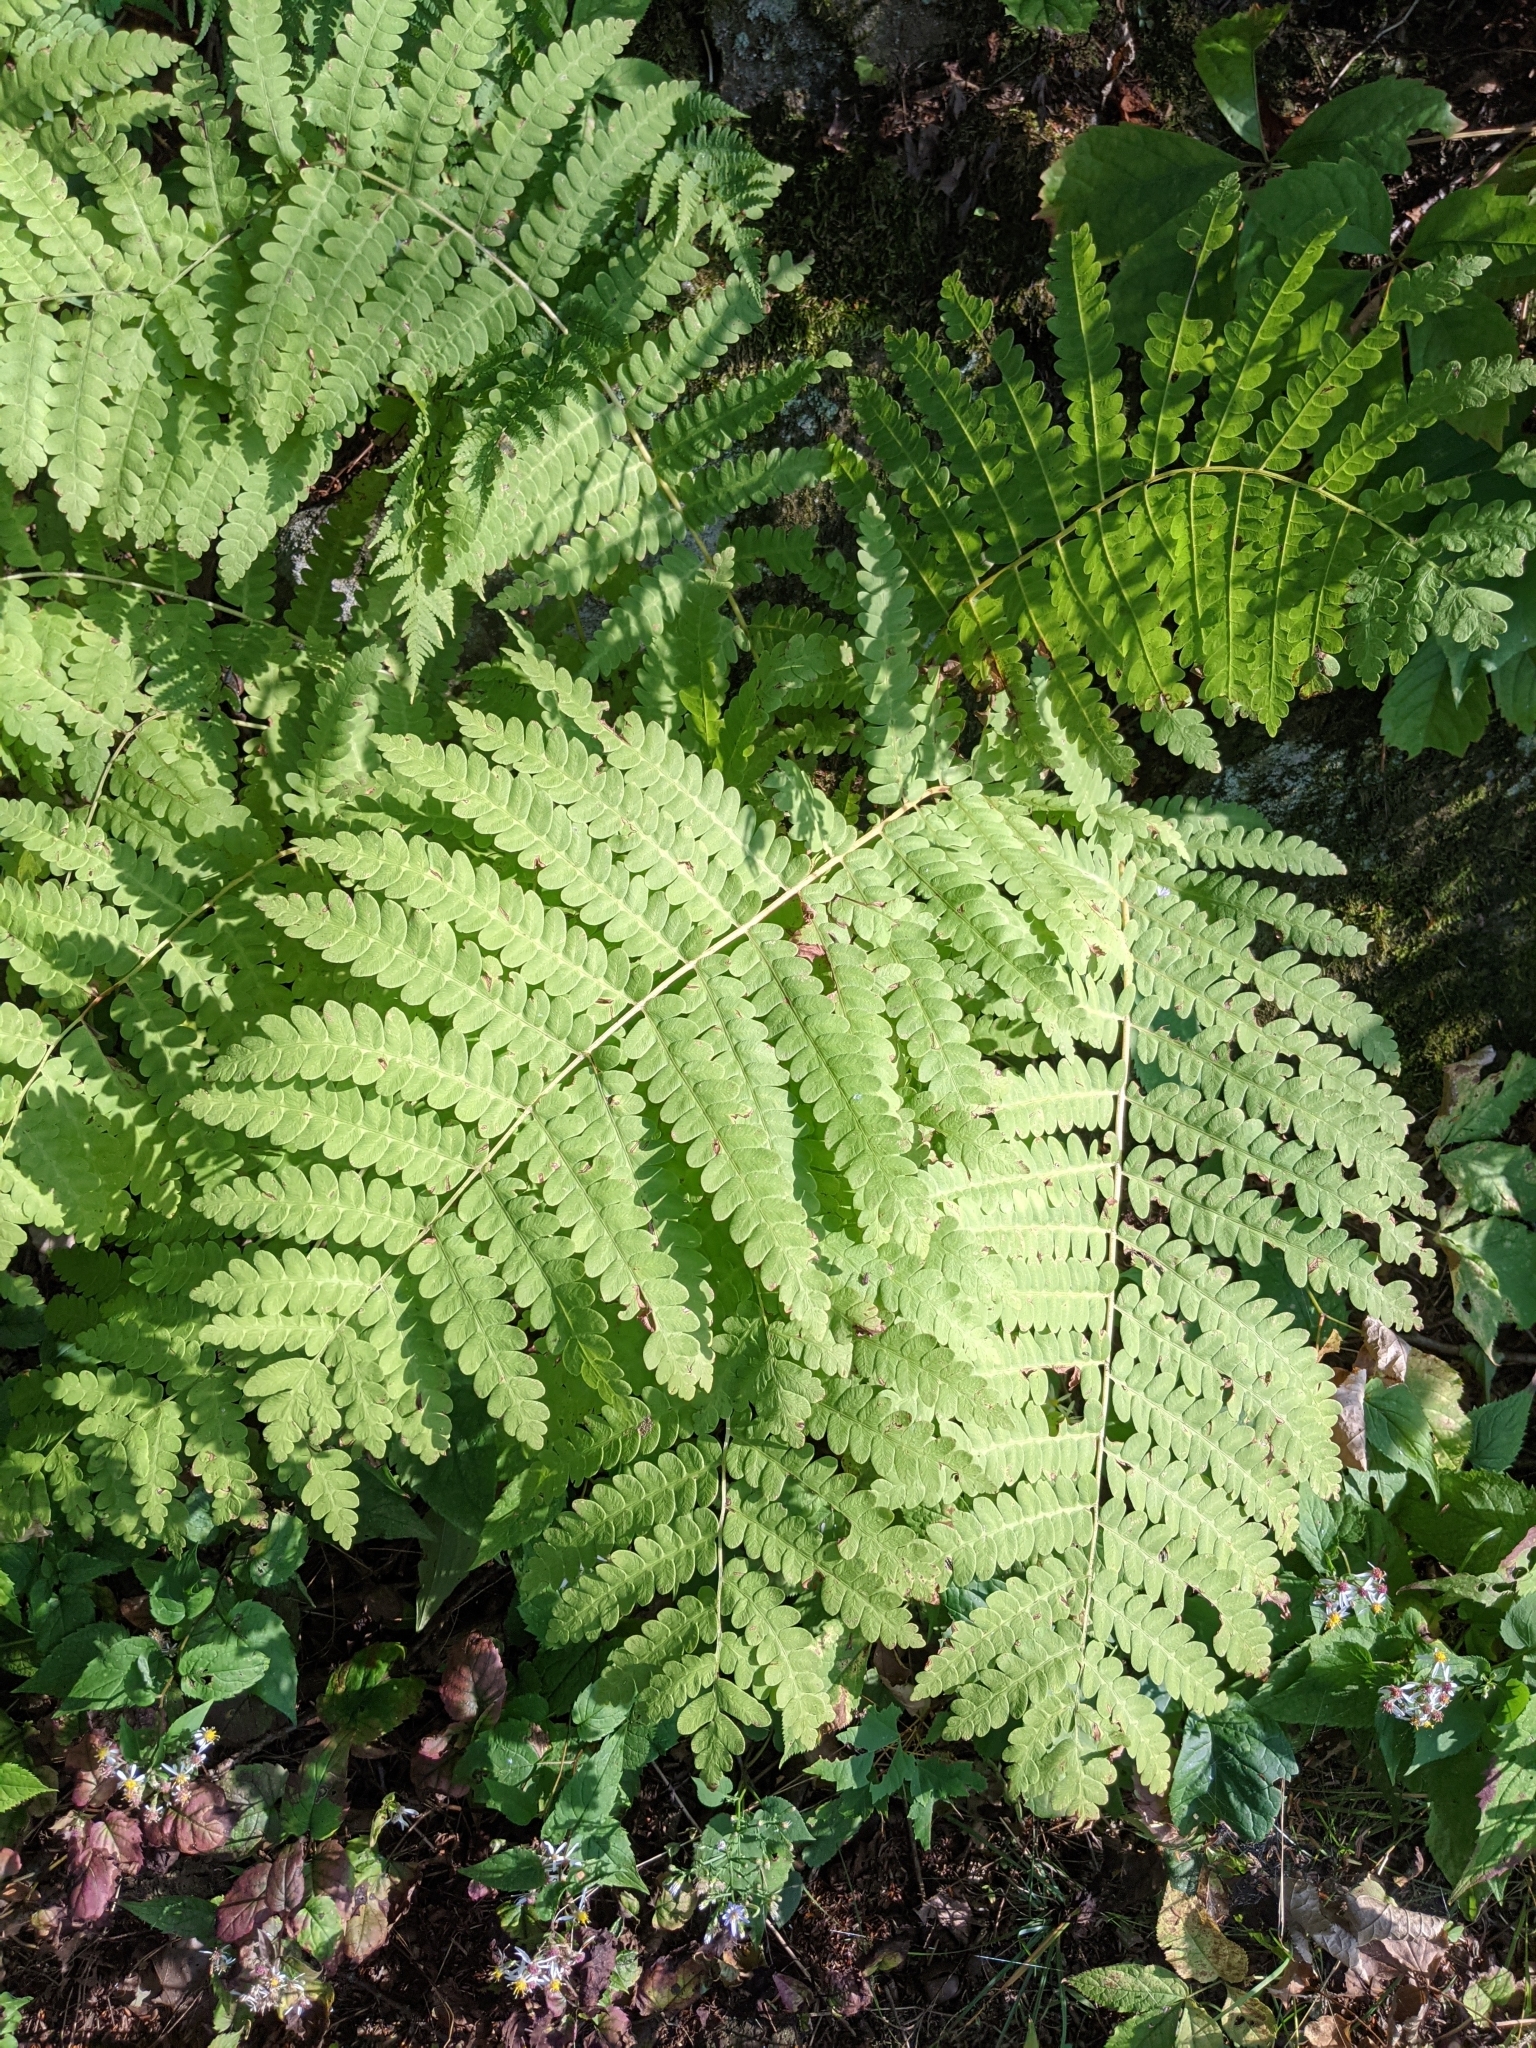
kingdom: Plantae
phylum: Tracheophyta
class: Polypodiopsida
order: Osmundales
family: Osmundaceae
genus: Claytosmunda
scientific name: Claytosmunda claytoniana
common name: Clayton's fern
